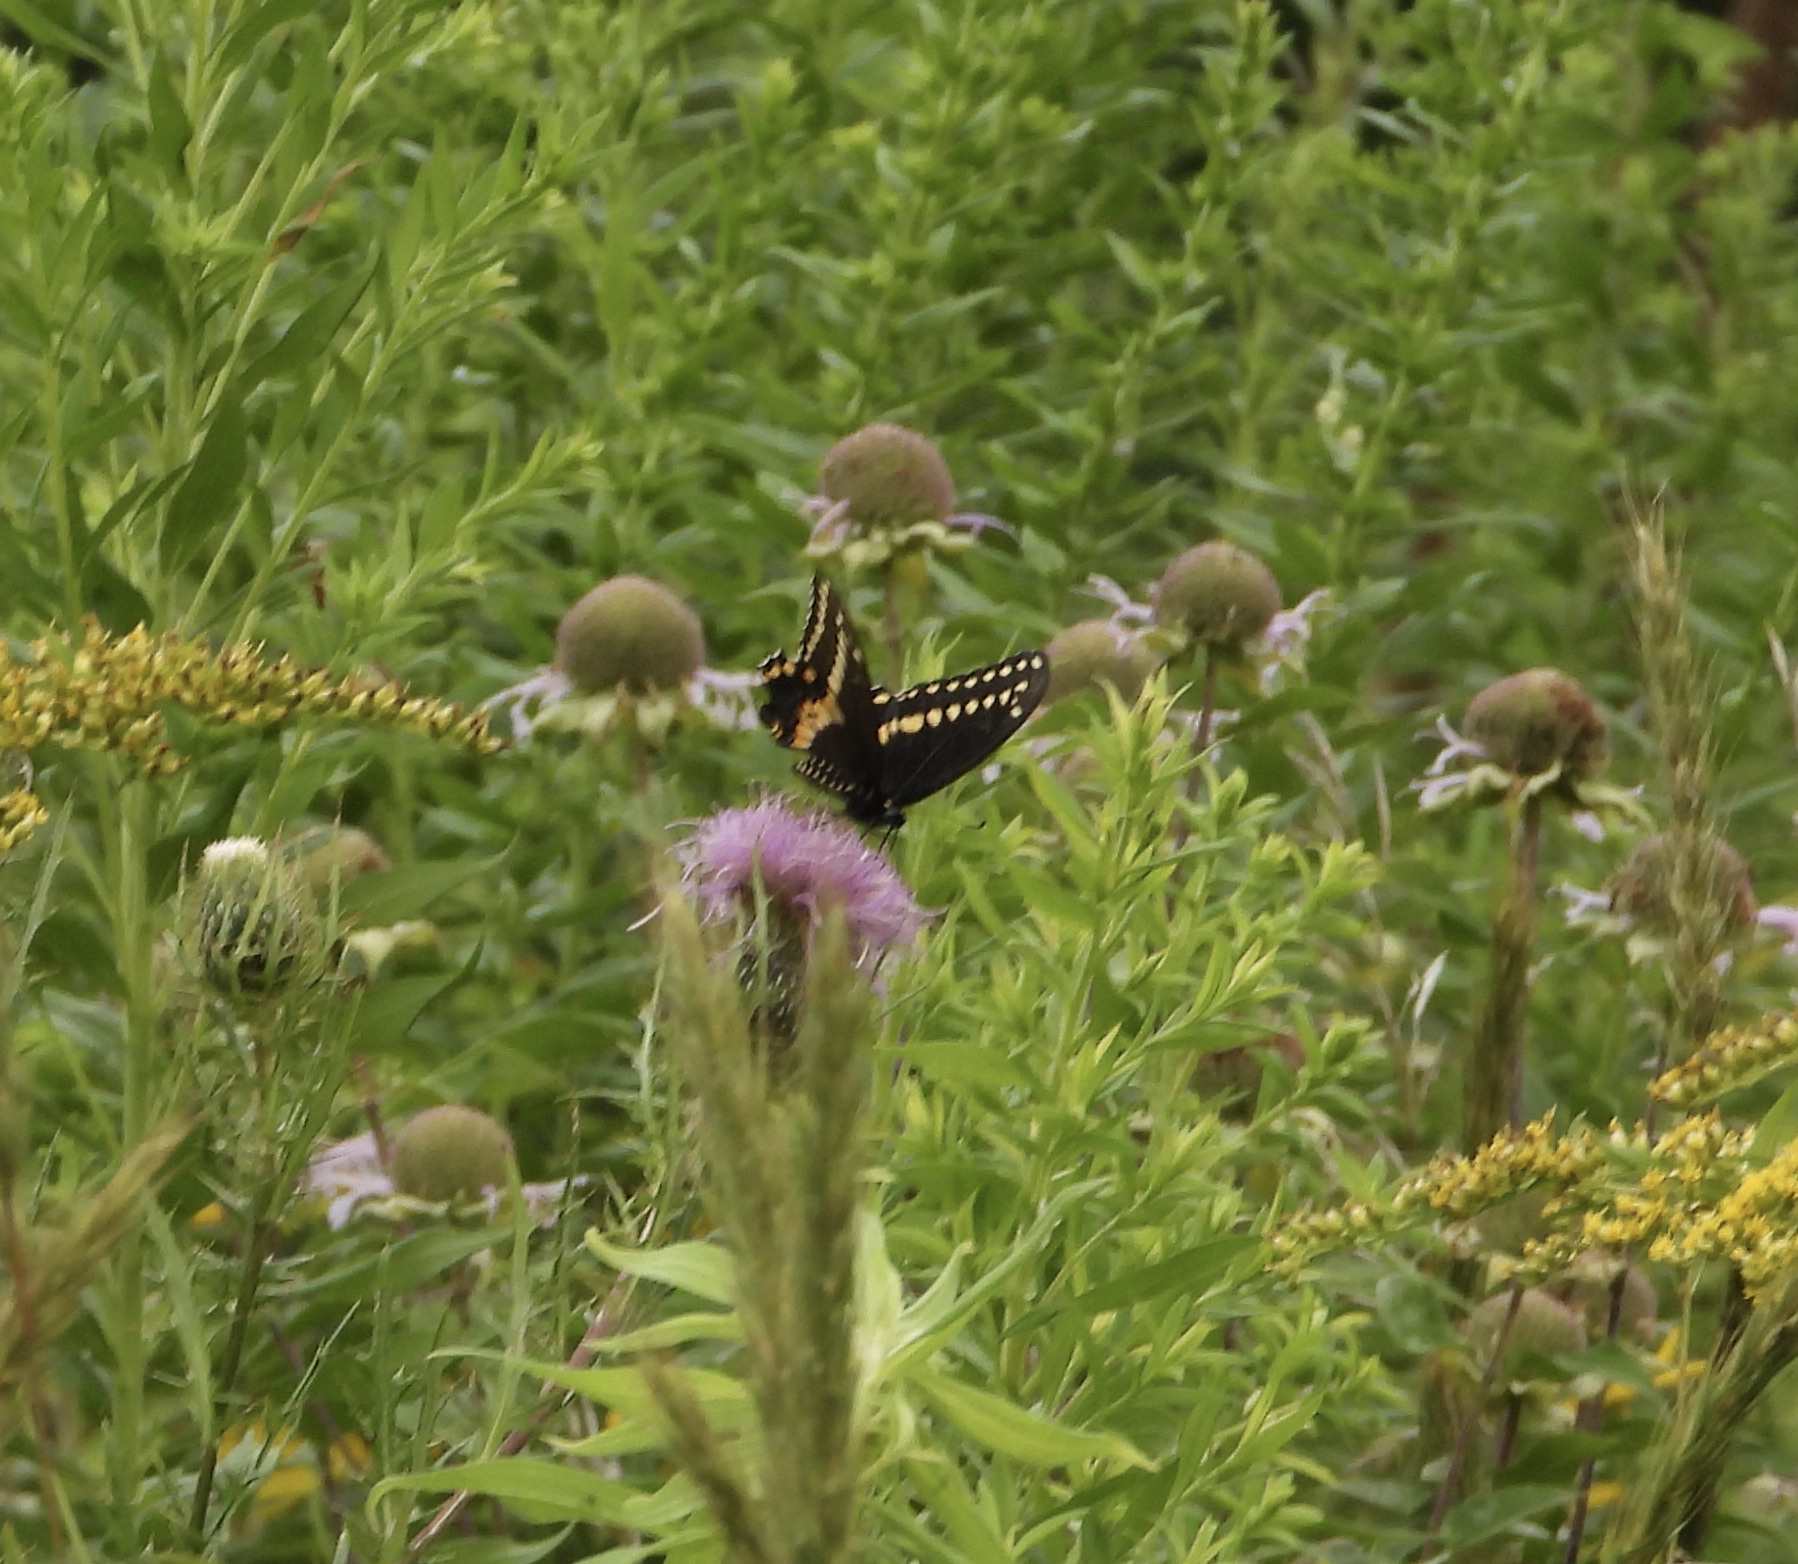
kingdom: Animalia
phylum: Arthropoda
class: Insecta
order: Lepidoptera
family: Papilionidae
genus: Papilio
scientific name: Papilio polyxenes
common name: Black swallowtail
